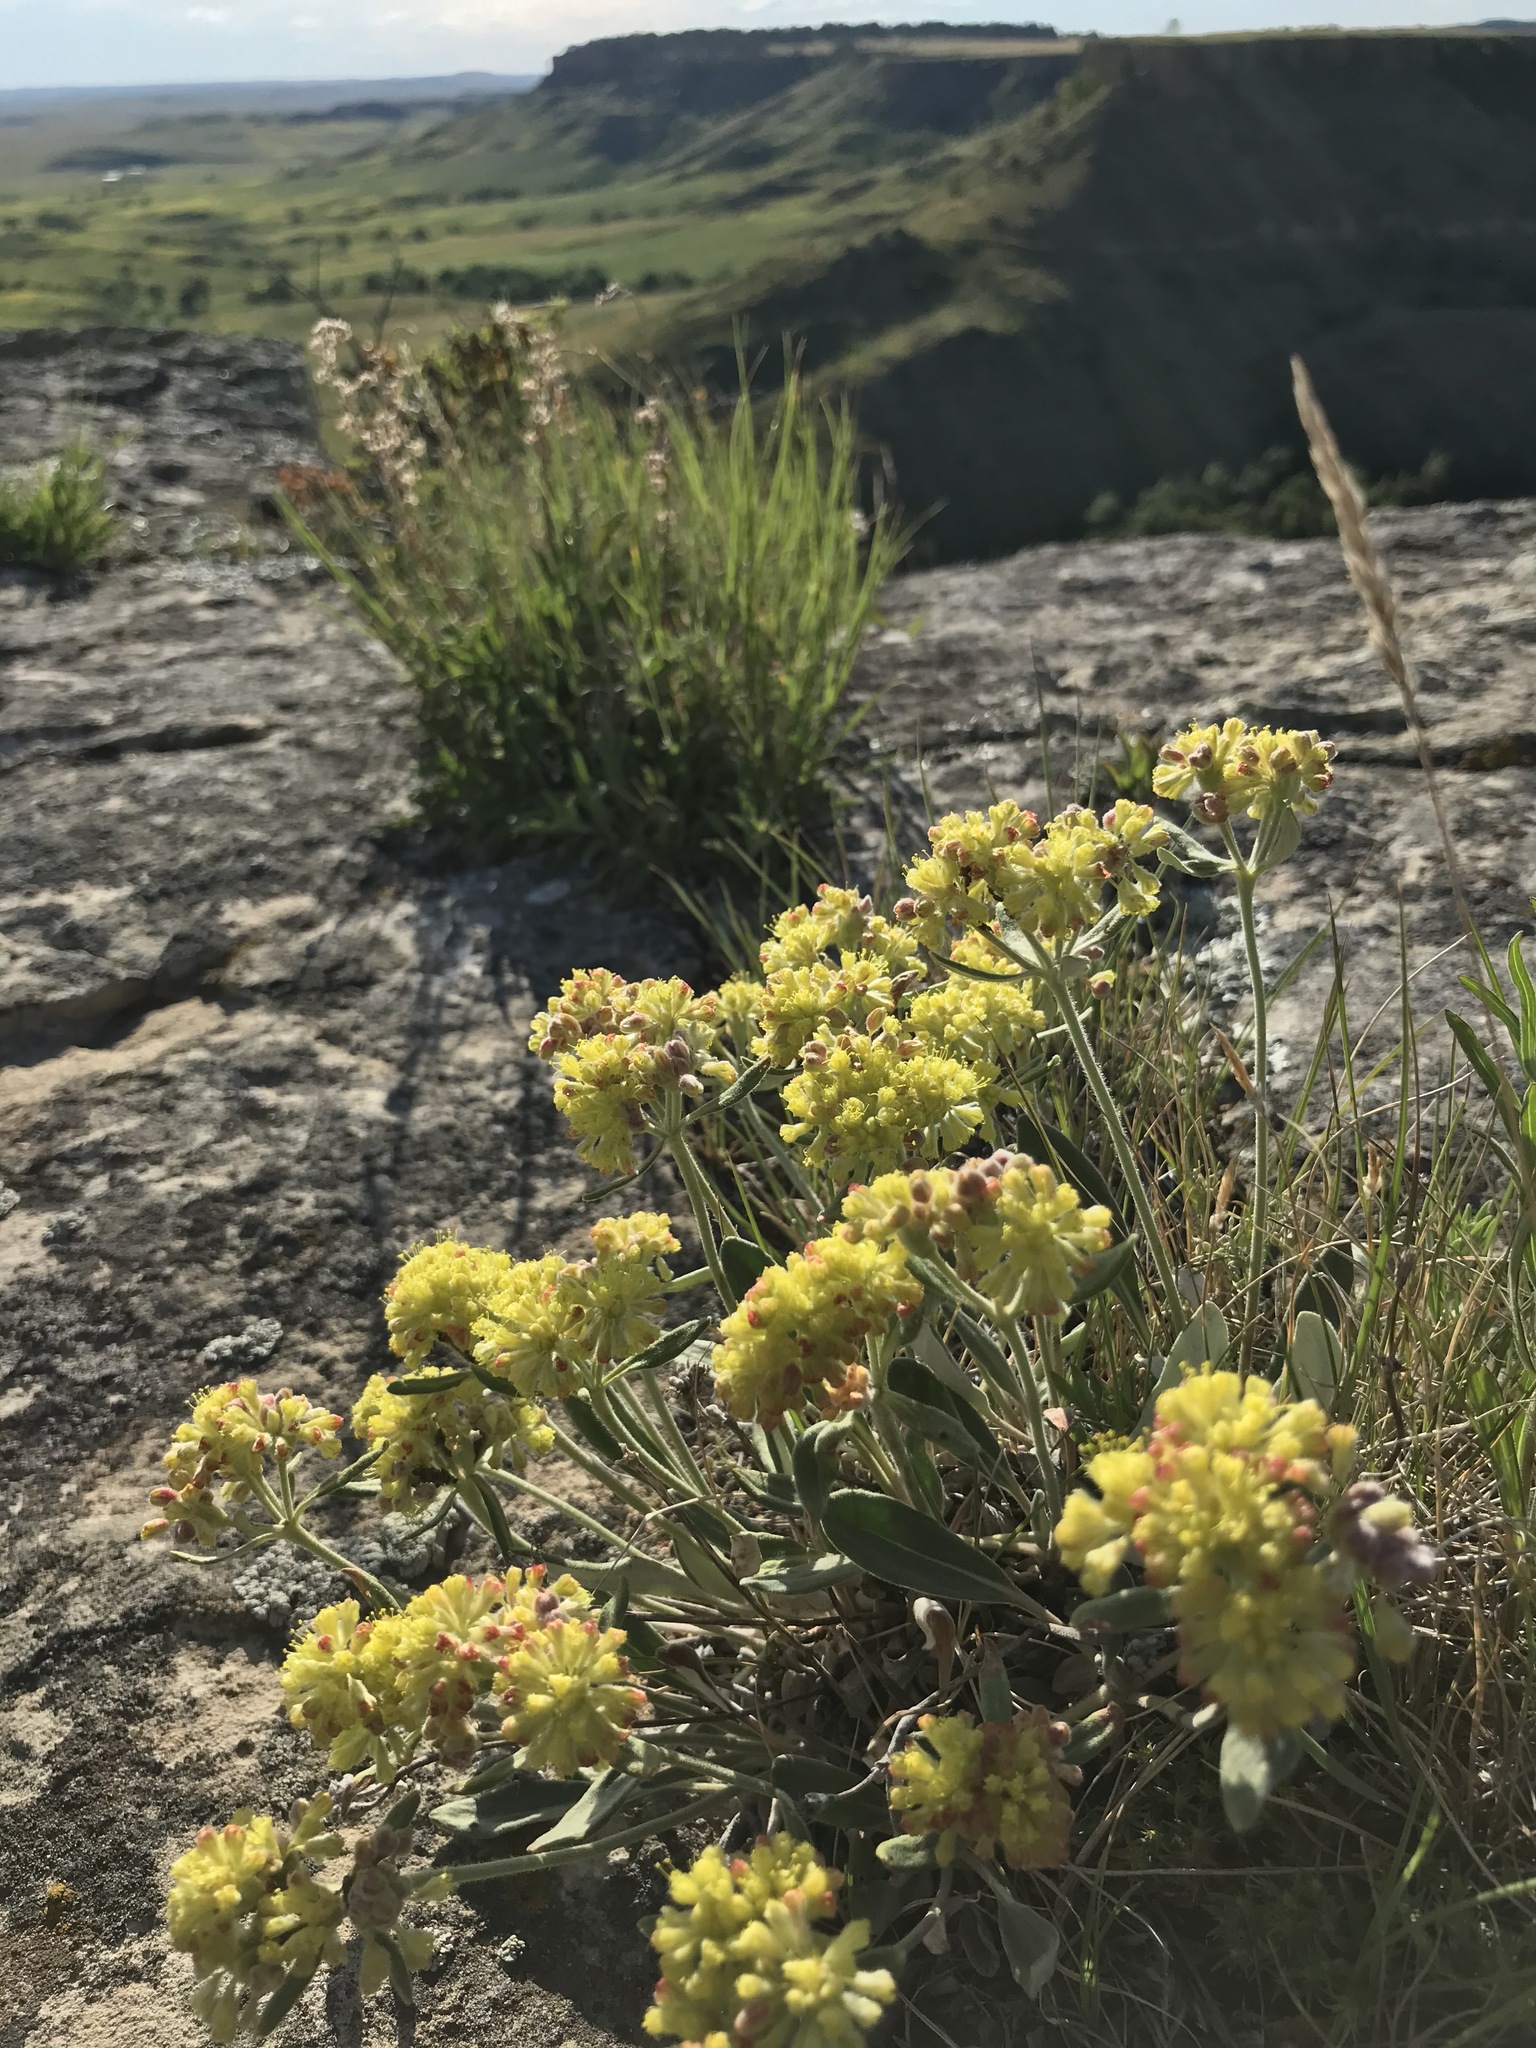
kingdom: Plantae
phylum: Tracheophyta
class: Magnoliopsida
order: Caryophyllales
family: Polygonaceae
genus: Eriogonum
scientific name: Eriogonum flavum
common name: Alpine golden wild buckwheat
